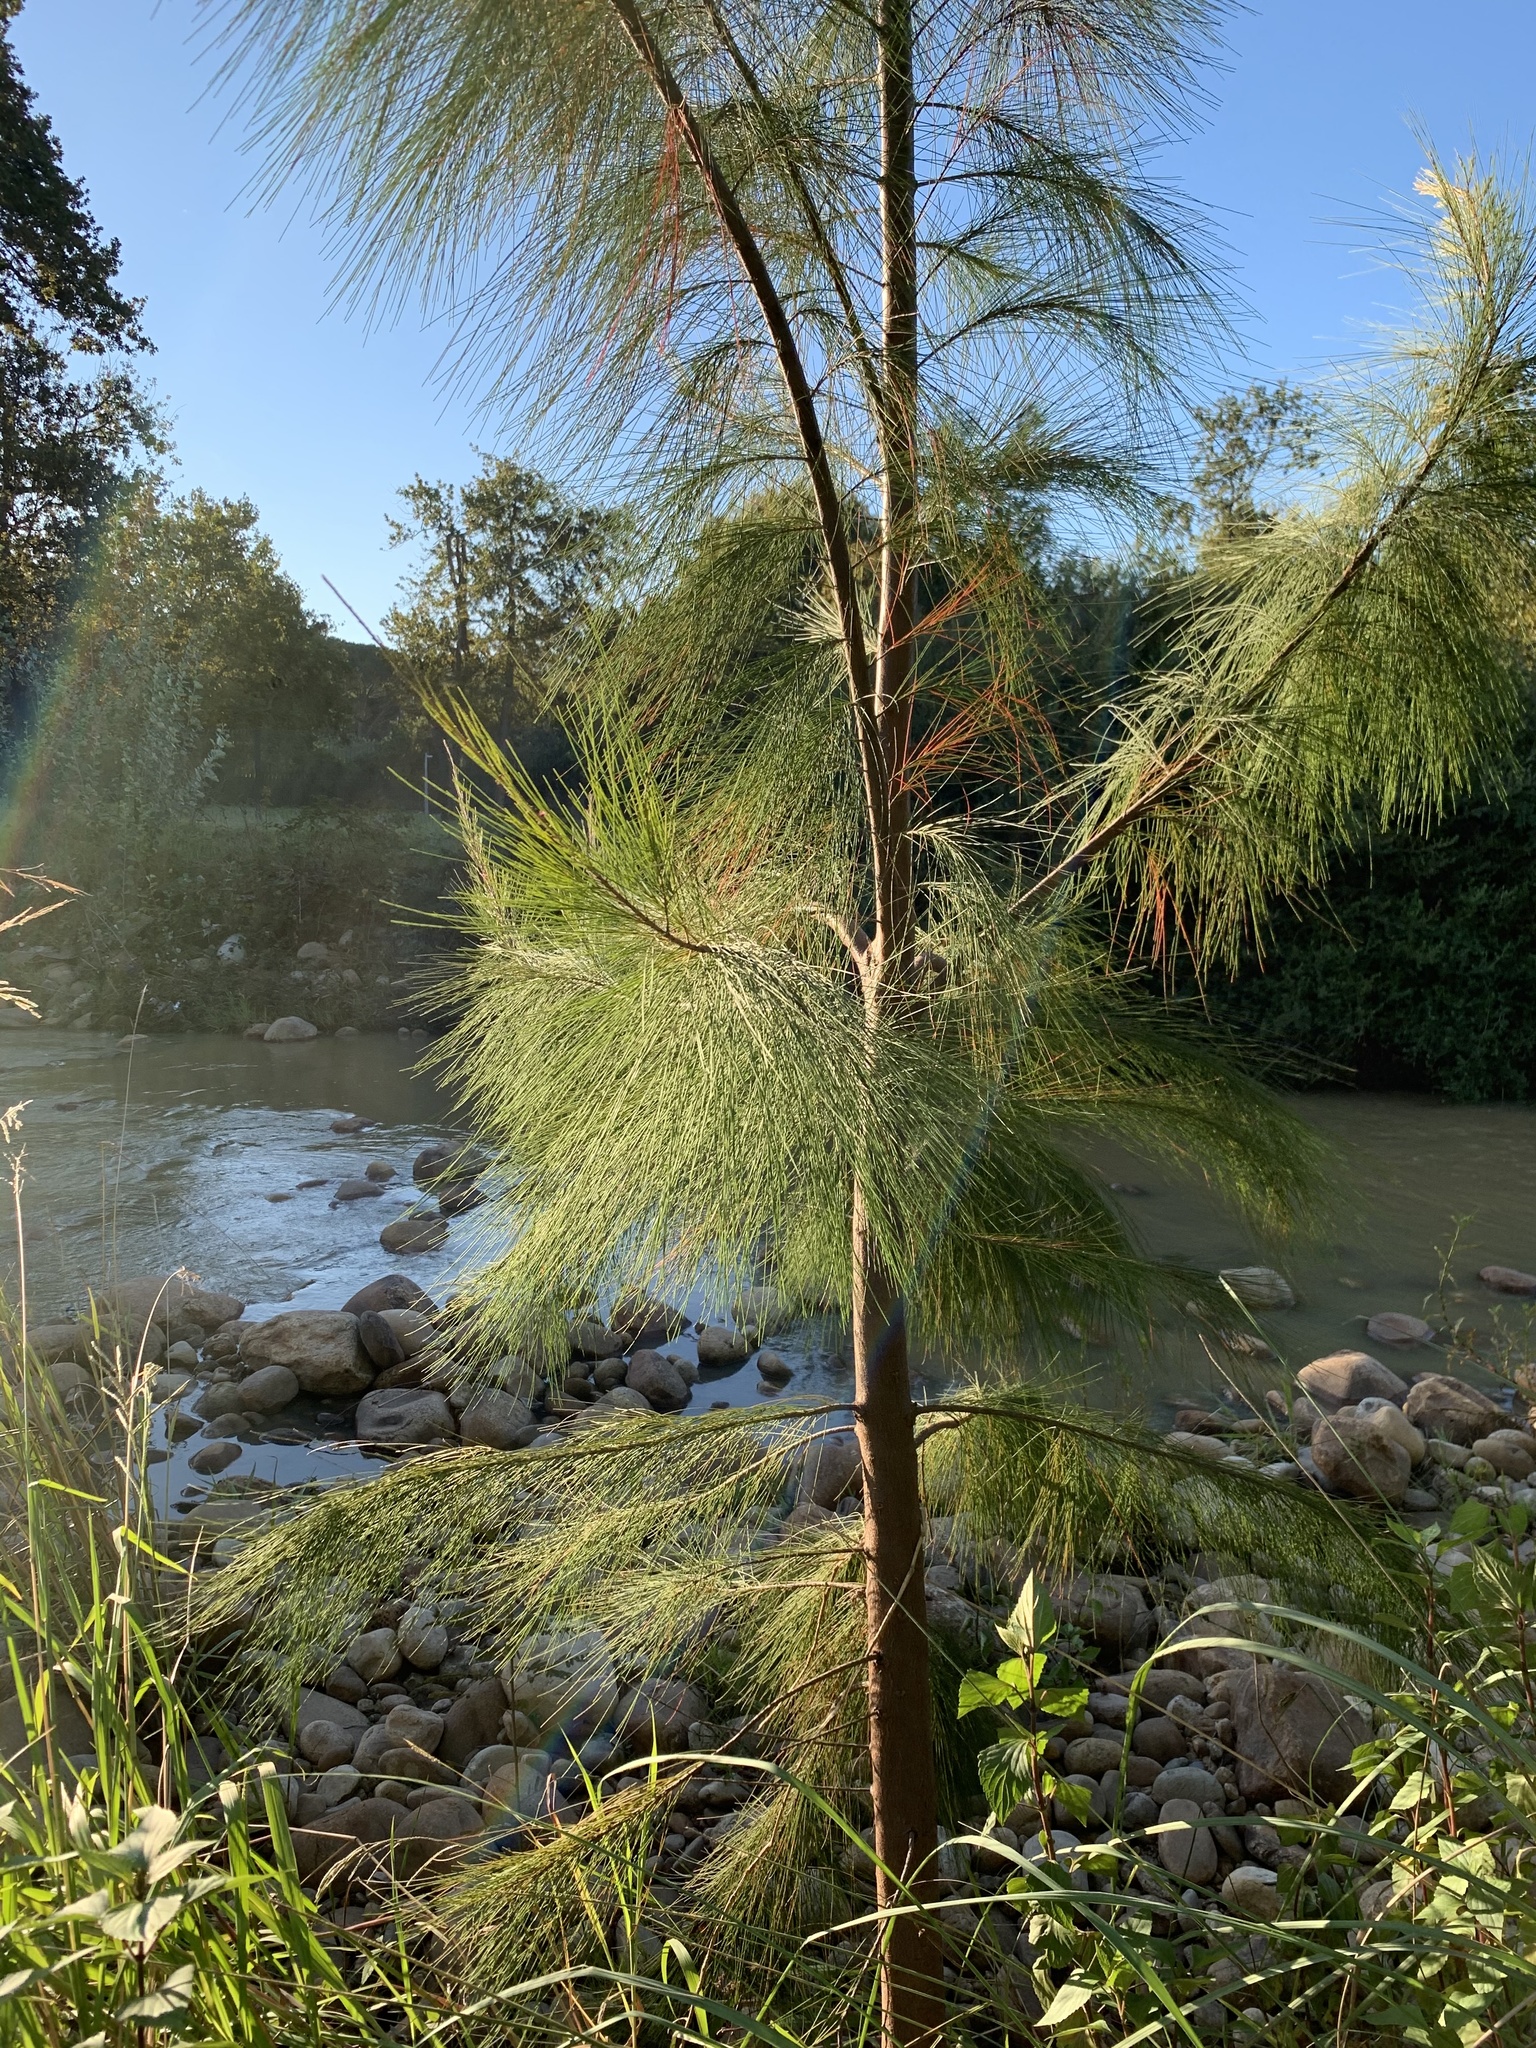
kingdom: Plantae
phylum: Tracheophyta
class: Magnoliopsida
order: Fagales
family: Casuarinaceae
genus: Casuarina
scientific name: Casuarina cunninghamiana
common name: River sheoak
